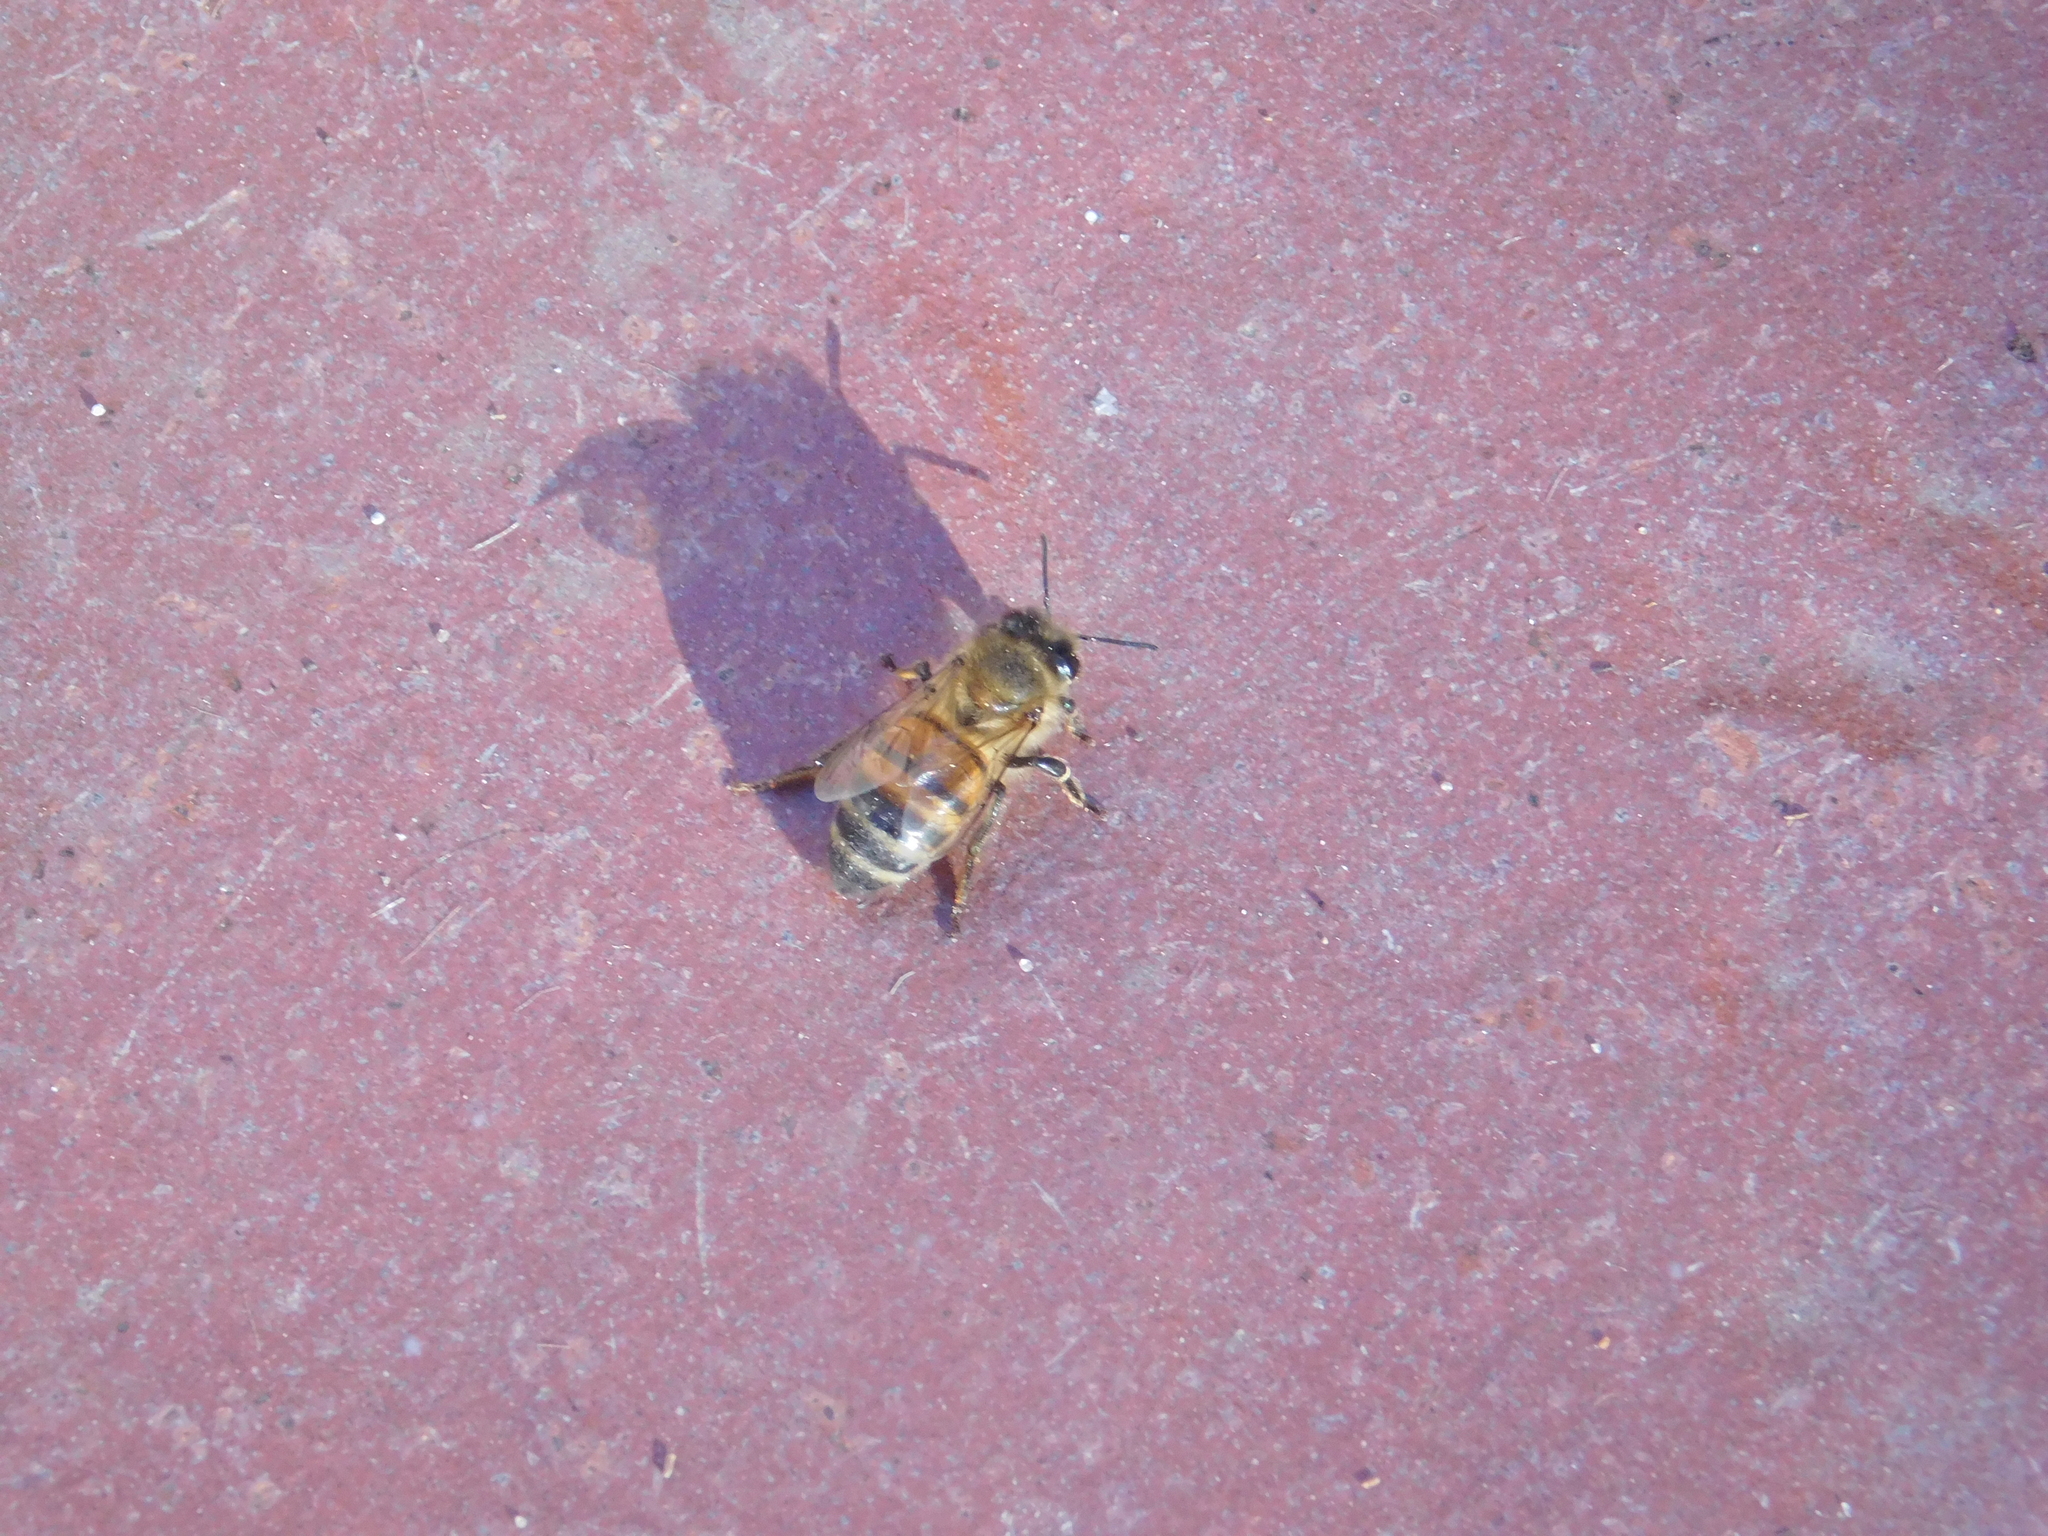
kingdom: Animalia
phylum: Arthropoda
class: Insecta
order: Hymenoptera
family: Apidae
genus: Apis
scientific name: Apis mellifera
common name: Honey bee
